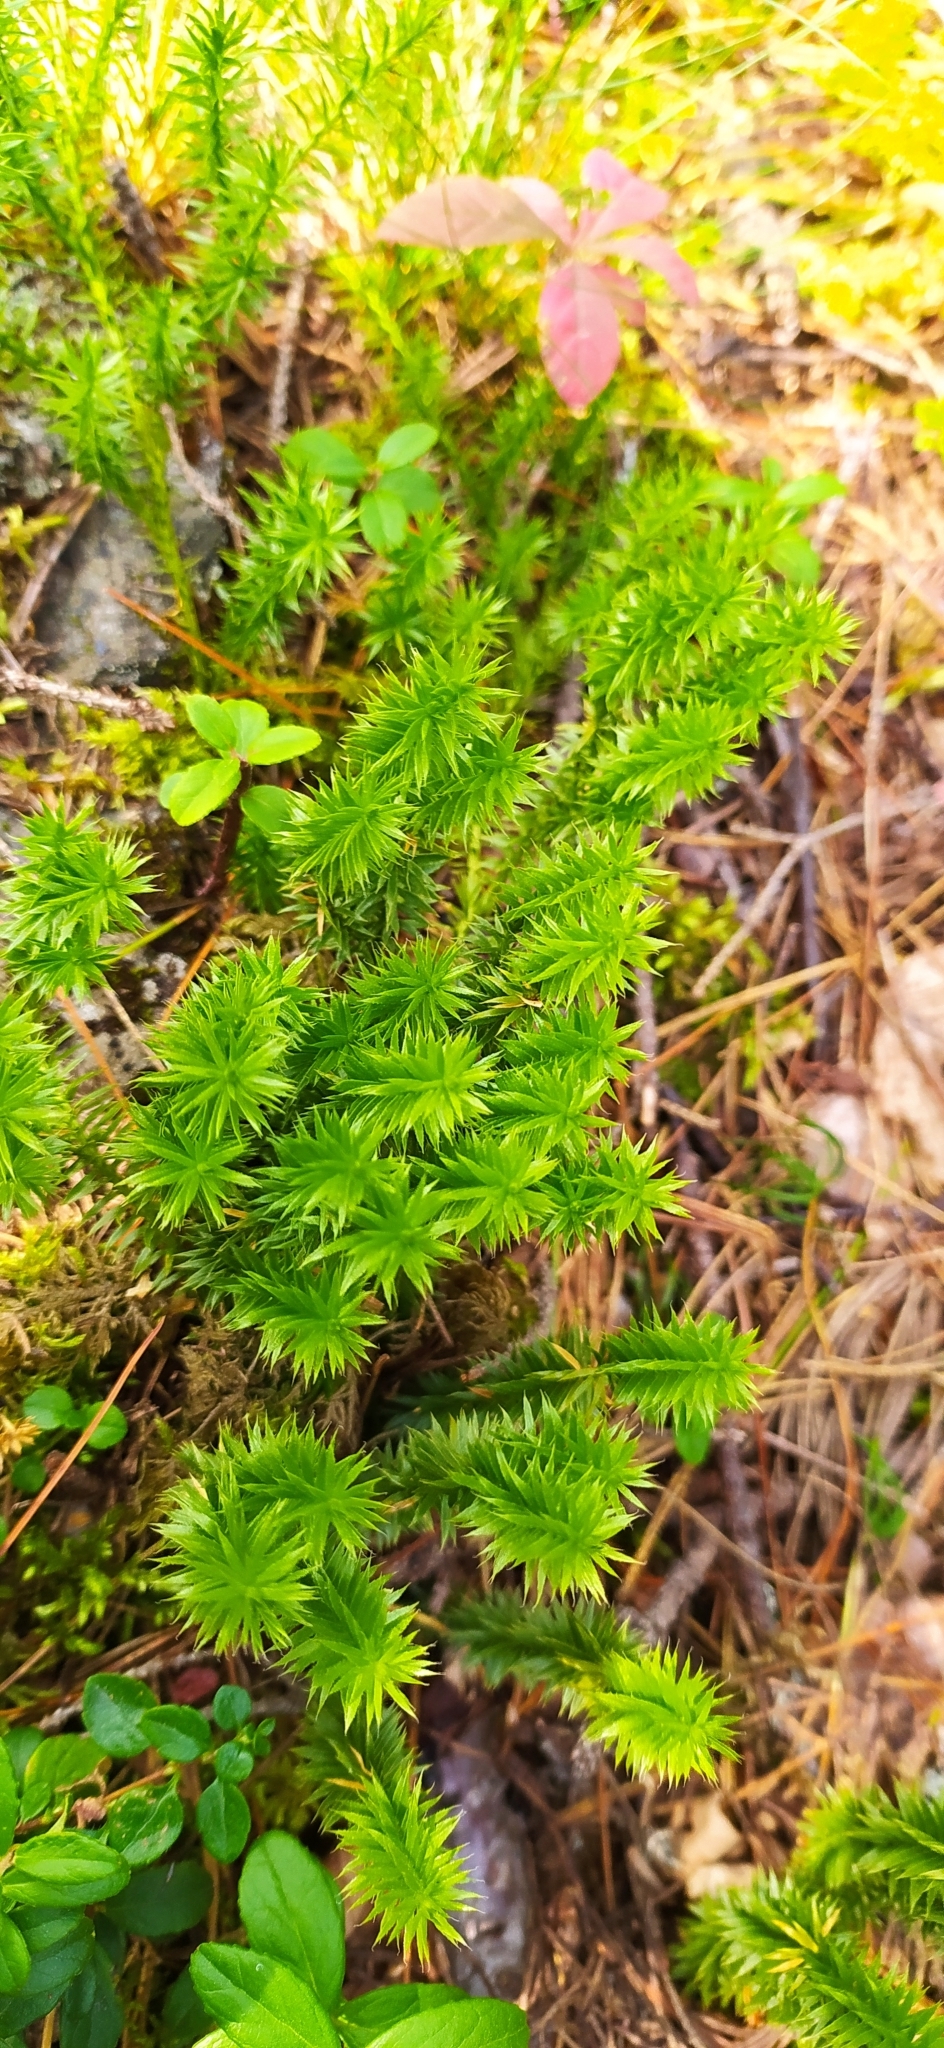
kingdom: Plantae
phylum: Tracheophyta
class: Lycopodiopsida
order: Lycopodiales
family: Lycopodiaceae
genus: Spinulum
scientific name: Spinulum annotinum
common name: Interrupted club-moss
